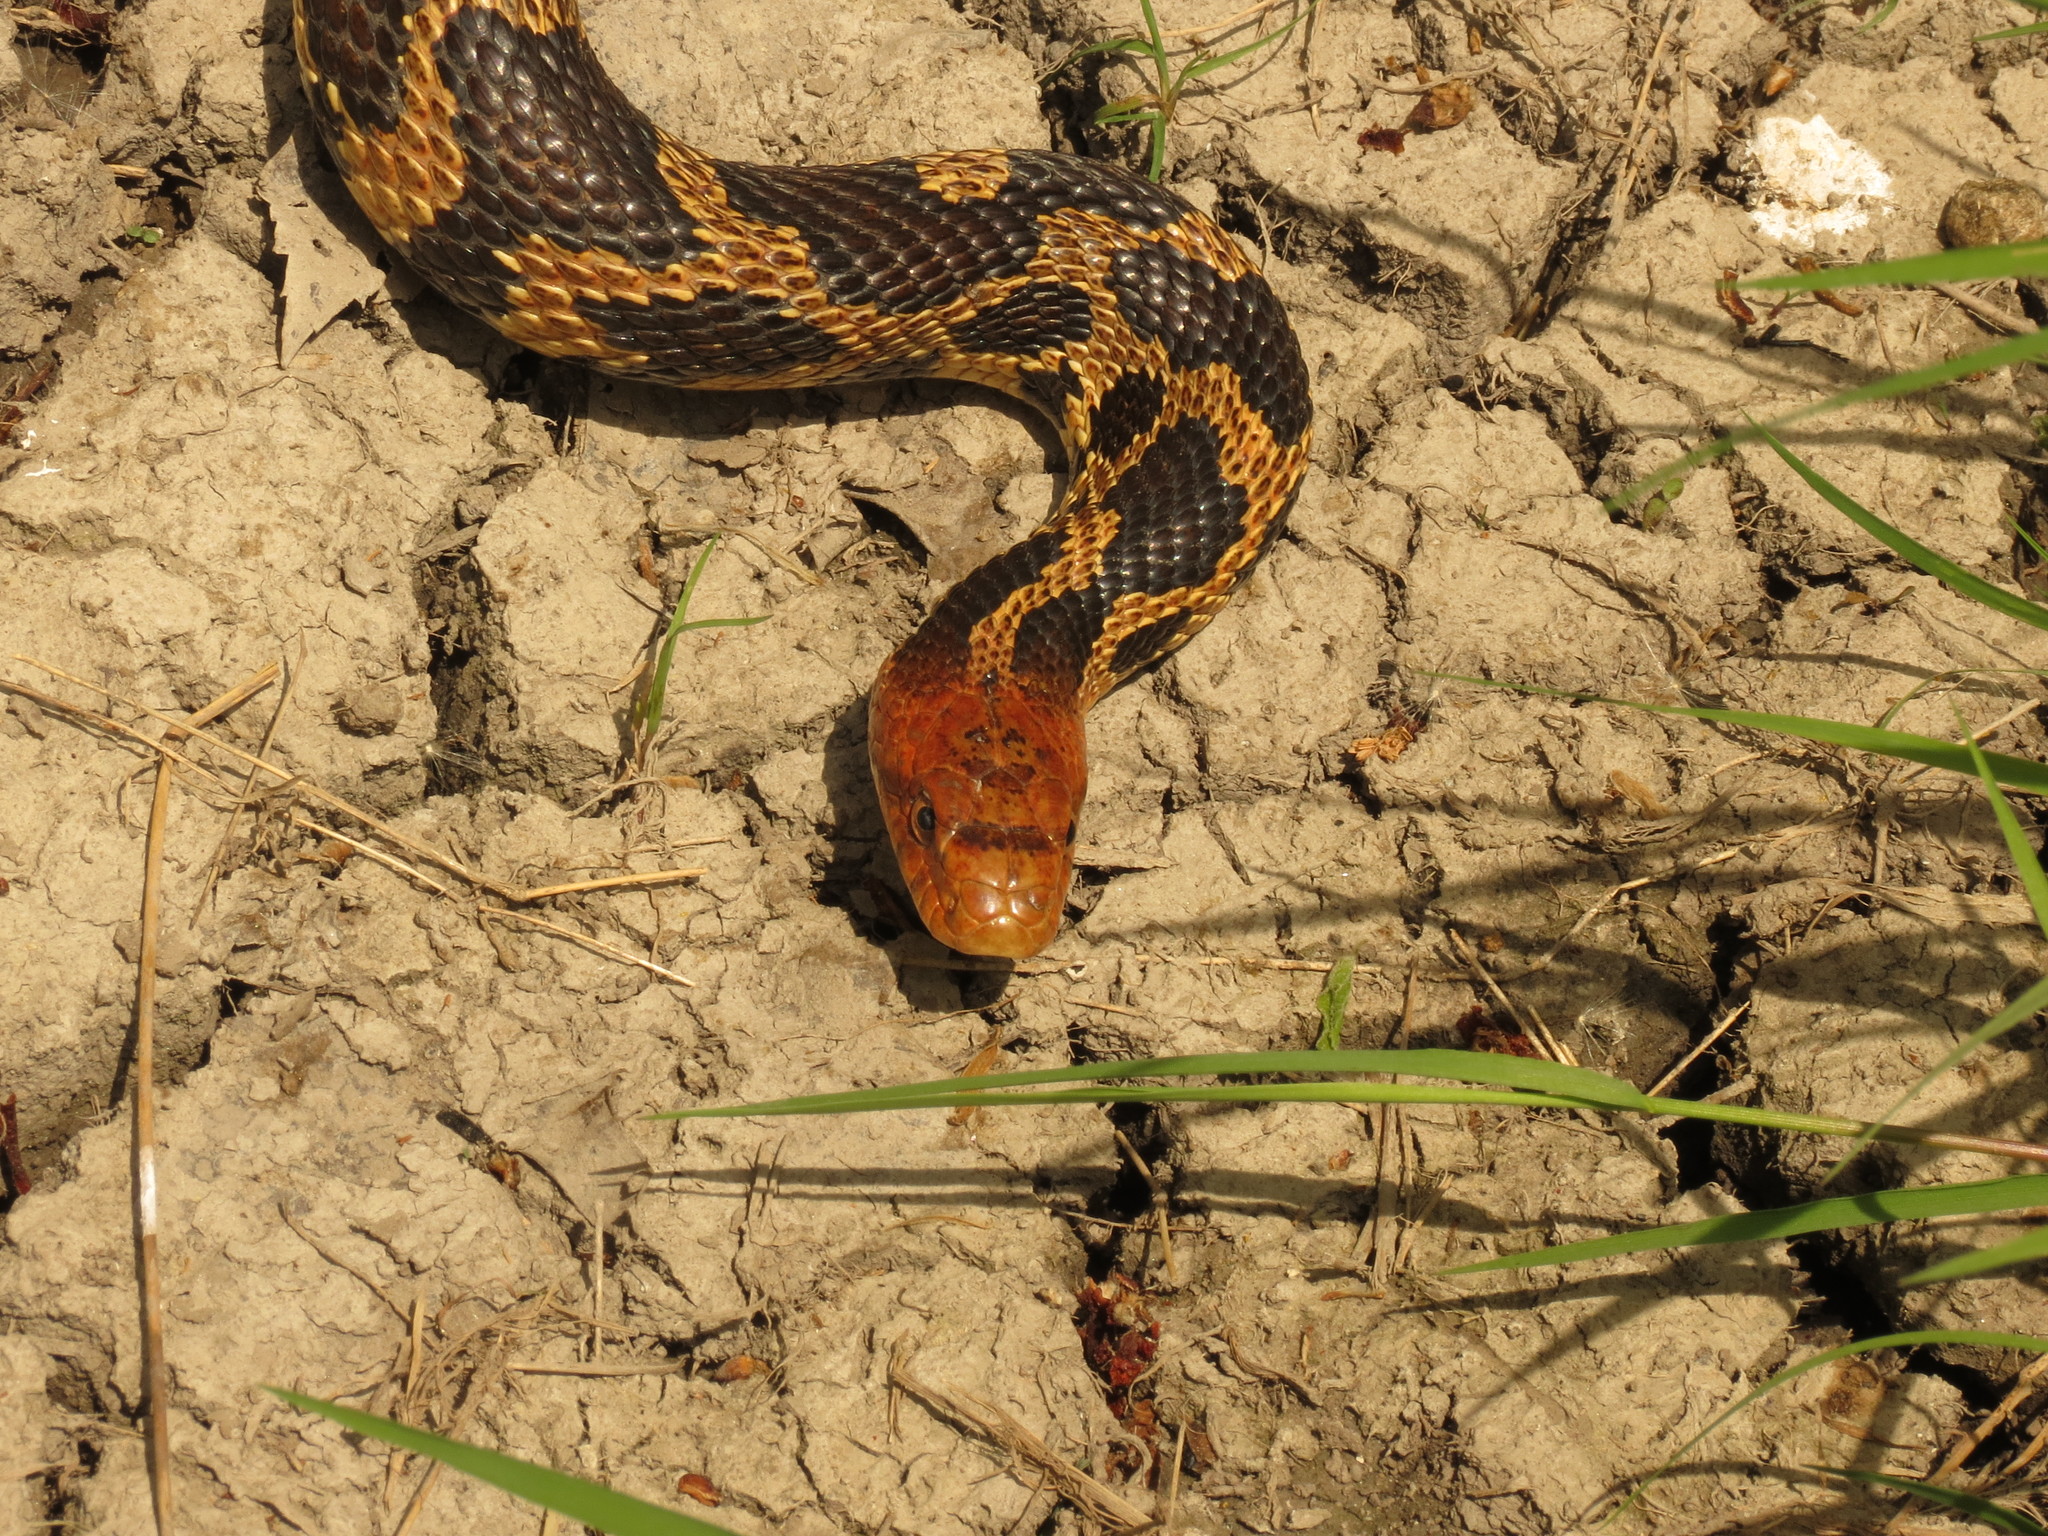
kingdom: Animalia
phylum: Chordata
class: Squamata
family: Colubridae
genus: Pantherophis
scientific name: Pantherophis vulpinus
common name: Eastern fox snake
